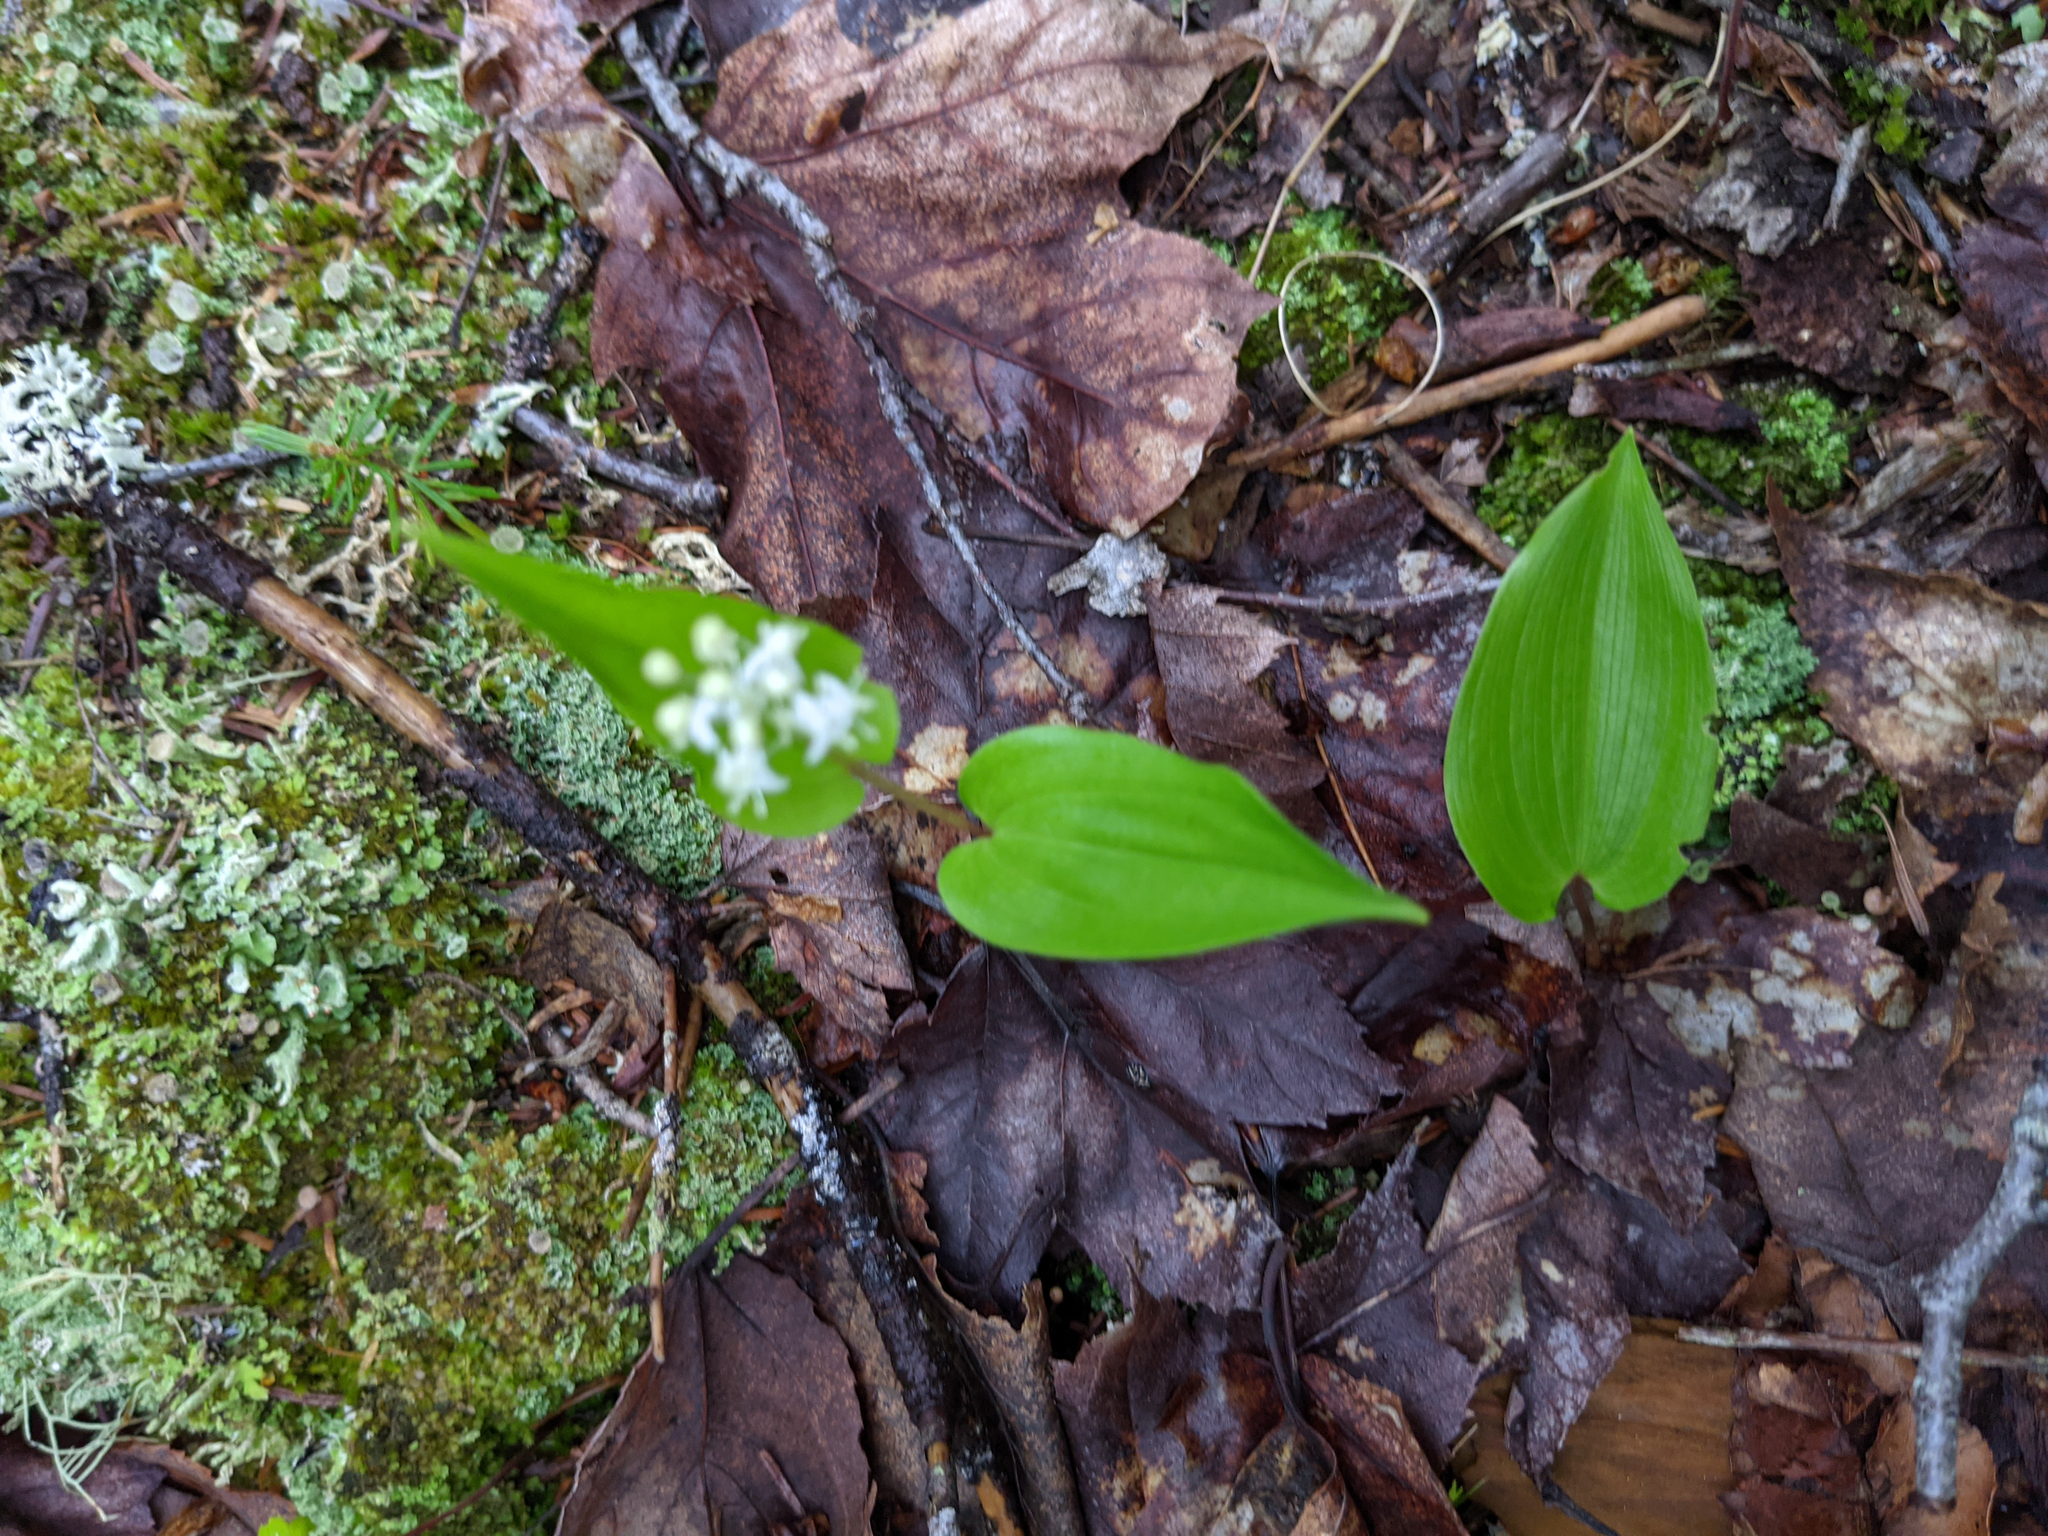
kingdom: Plantae
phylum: Tracheophyta
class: Liliopsida
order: Asparagales
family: Asparagaceae
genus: Maianthemum
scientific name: Maianthemum canadense
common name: False lily-of-the-valley
